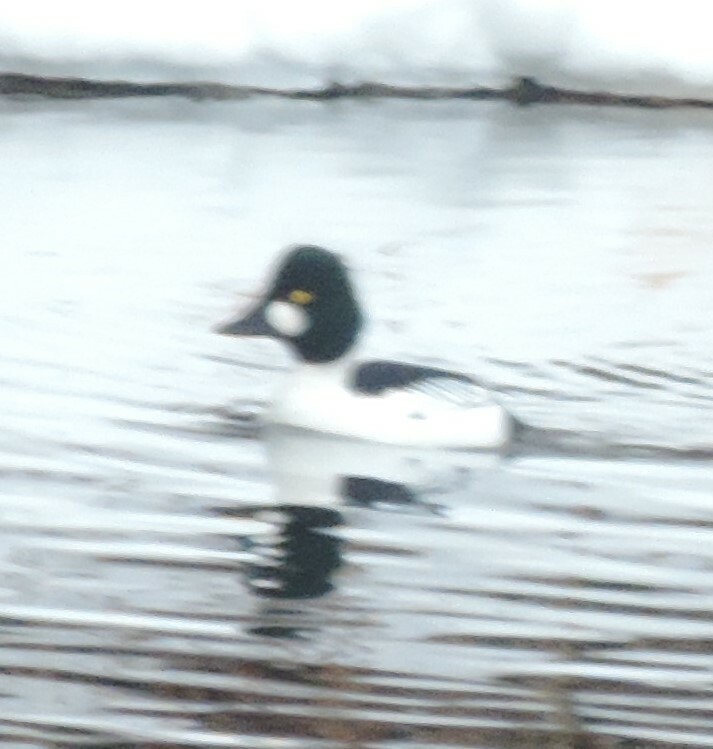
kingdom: Animalia
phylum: Chordata
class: Aves
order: Anseriformes
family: Anatidae
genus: Bucephala
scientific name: Bucephala clangula
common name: Common goldeneye
